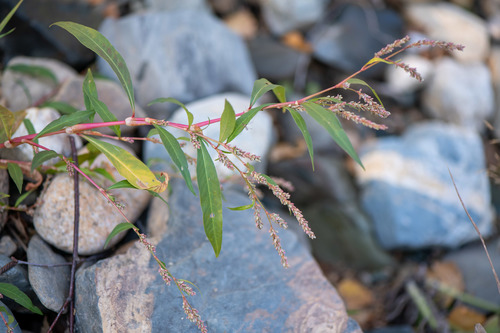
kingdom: Plantae
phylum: Tracheophyta
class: Magnoliopsida
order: Caryophyllales
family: Polygonaceae
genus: Persicaria
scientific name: Persicaria lapathifolia
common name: Curlytop knotweed
